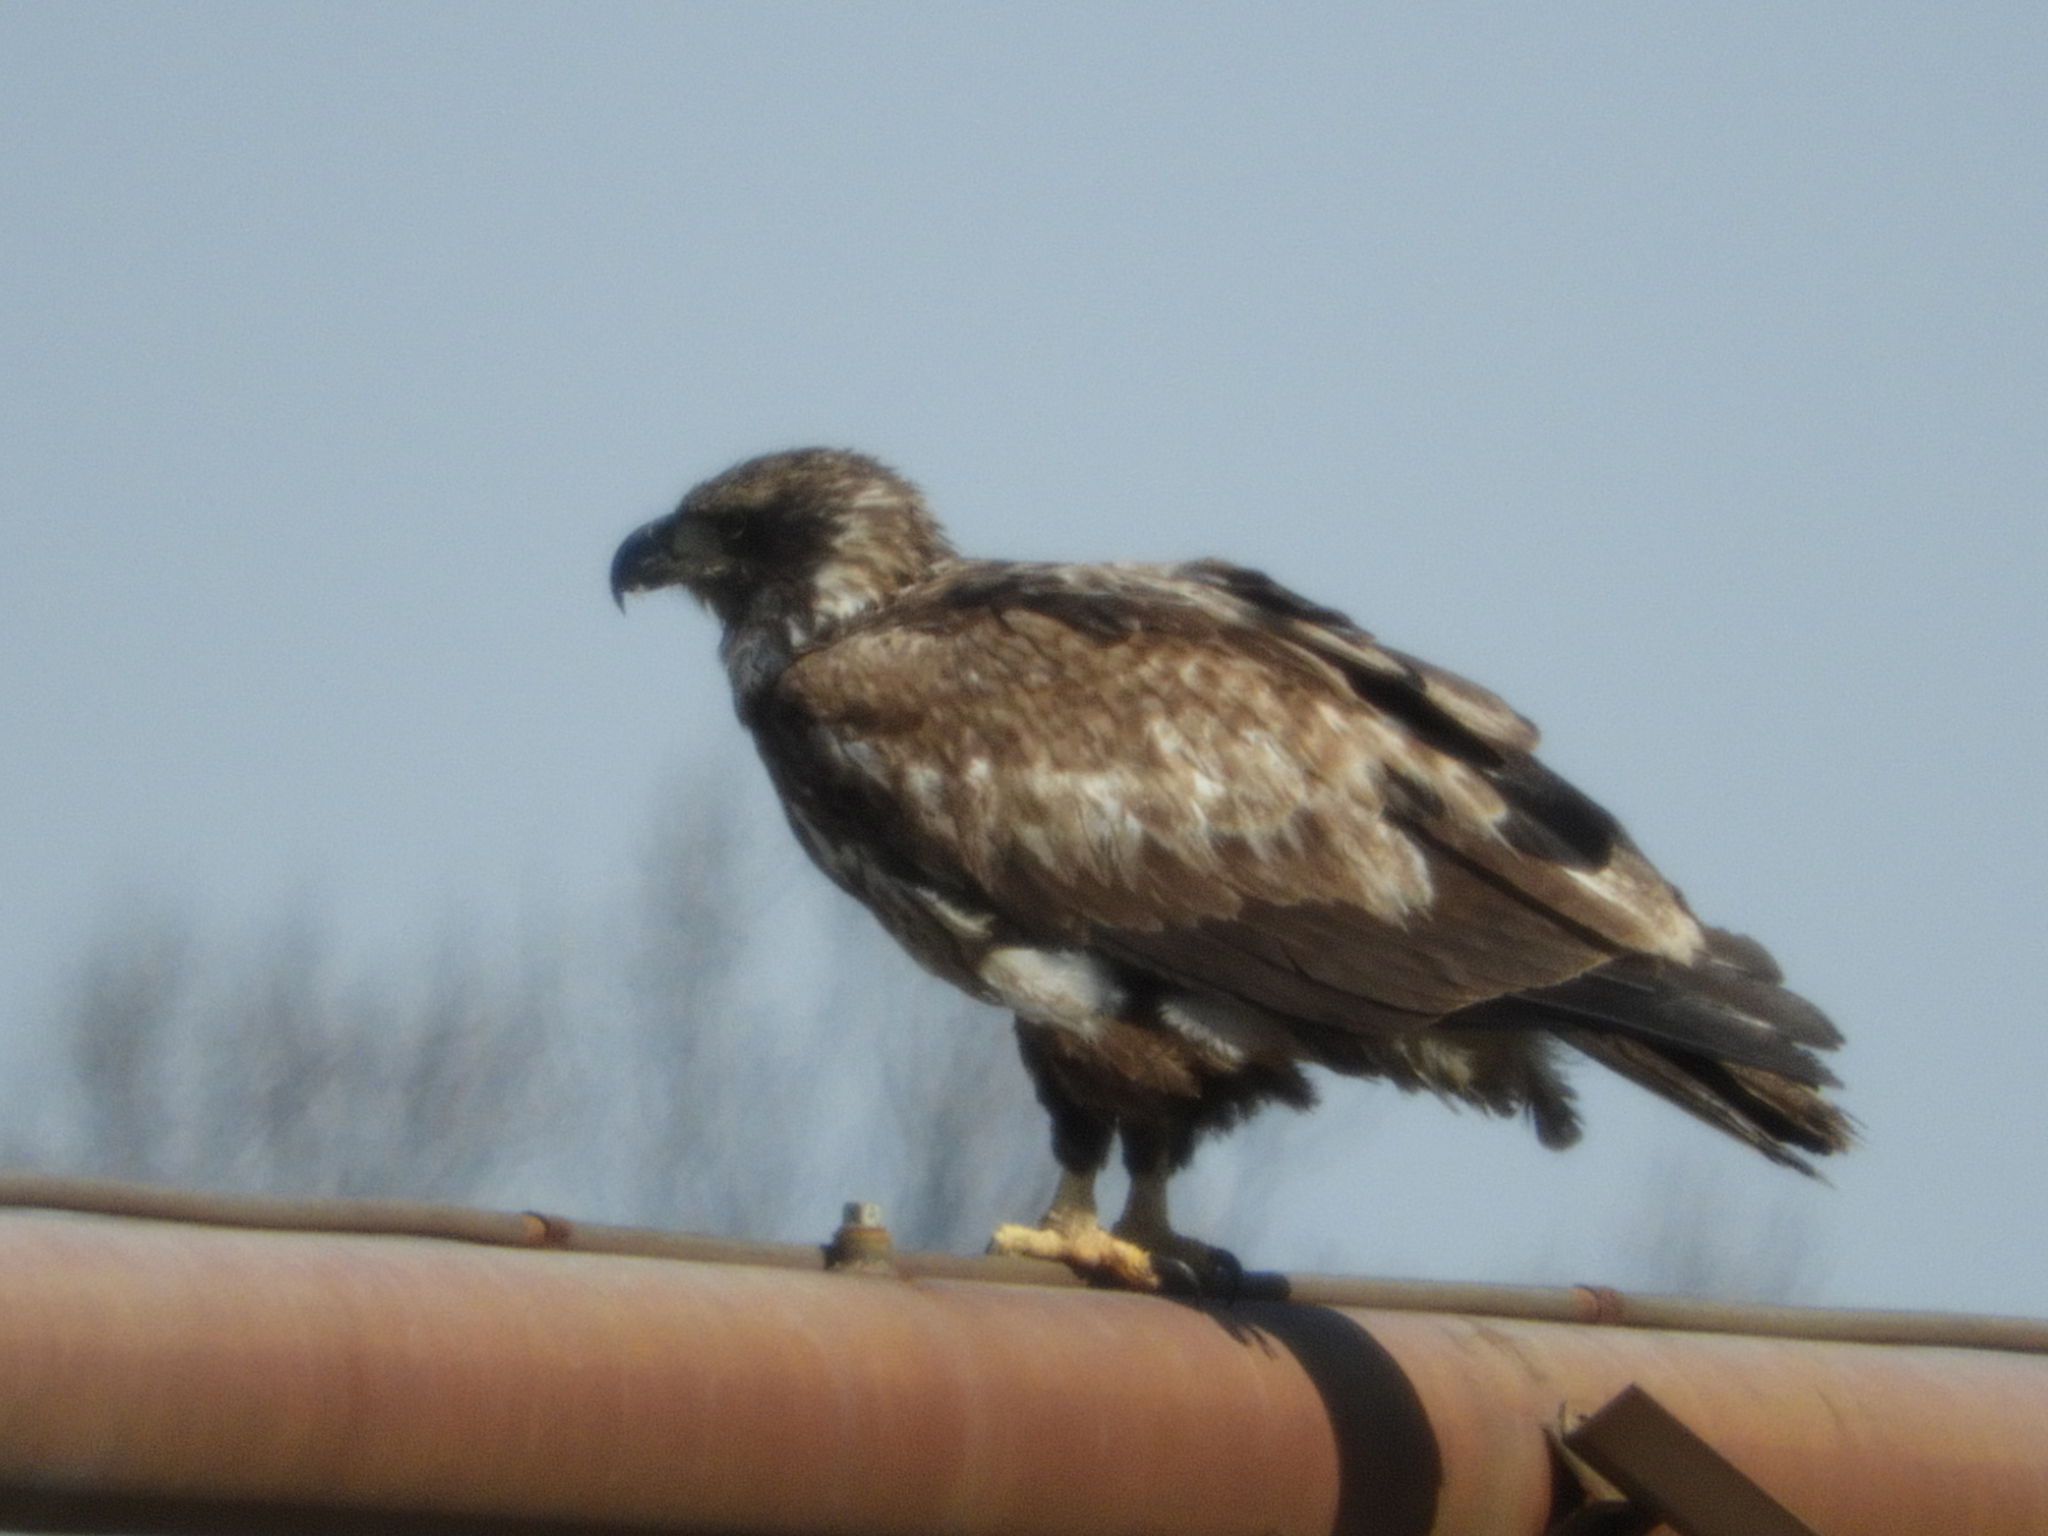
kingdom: Animalia
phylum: Chordata
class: Aves
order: Accipitriformes
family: Accipitridae
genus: Haliaeetus
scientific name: Haliaeetus leucocephalus
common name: Bald eagle
